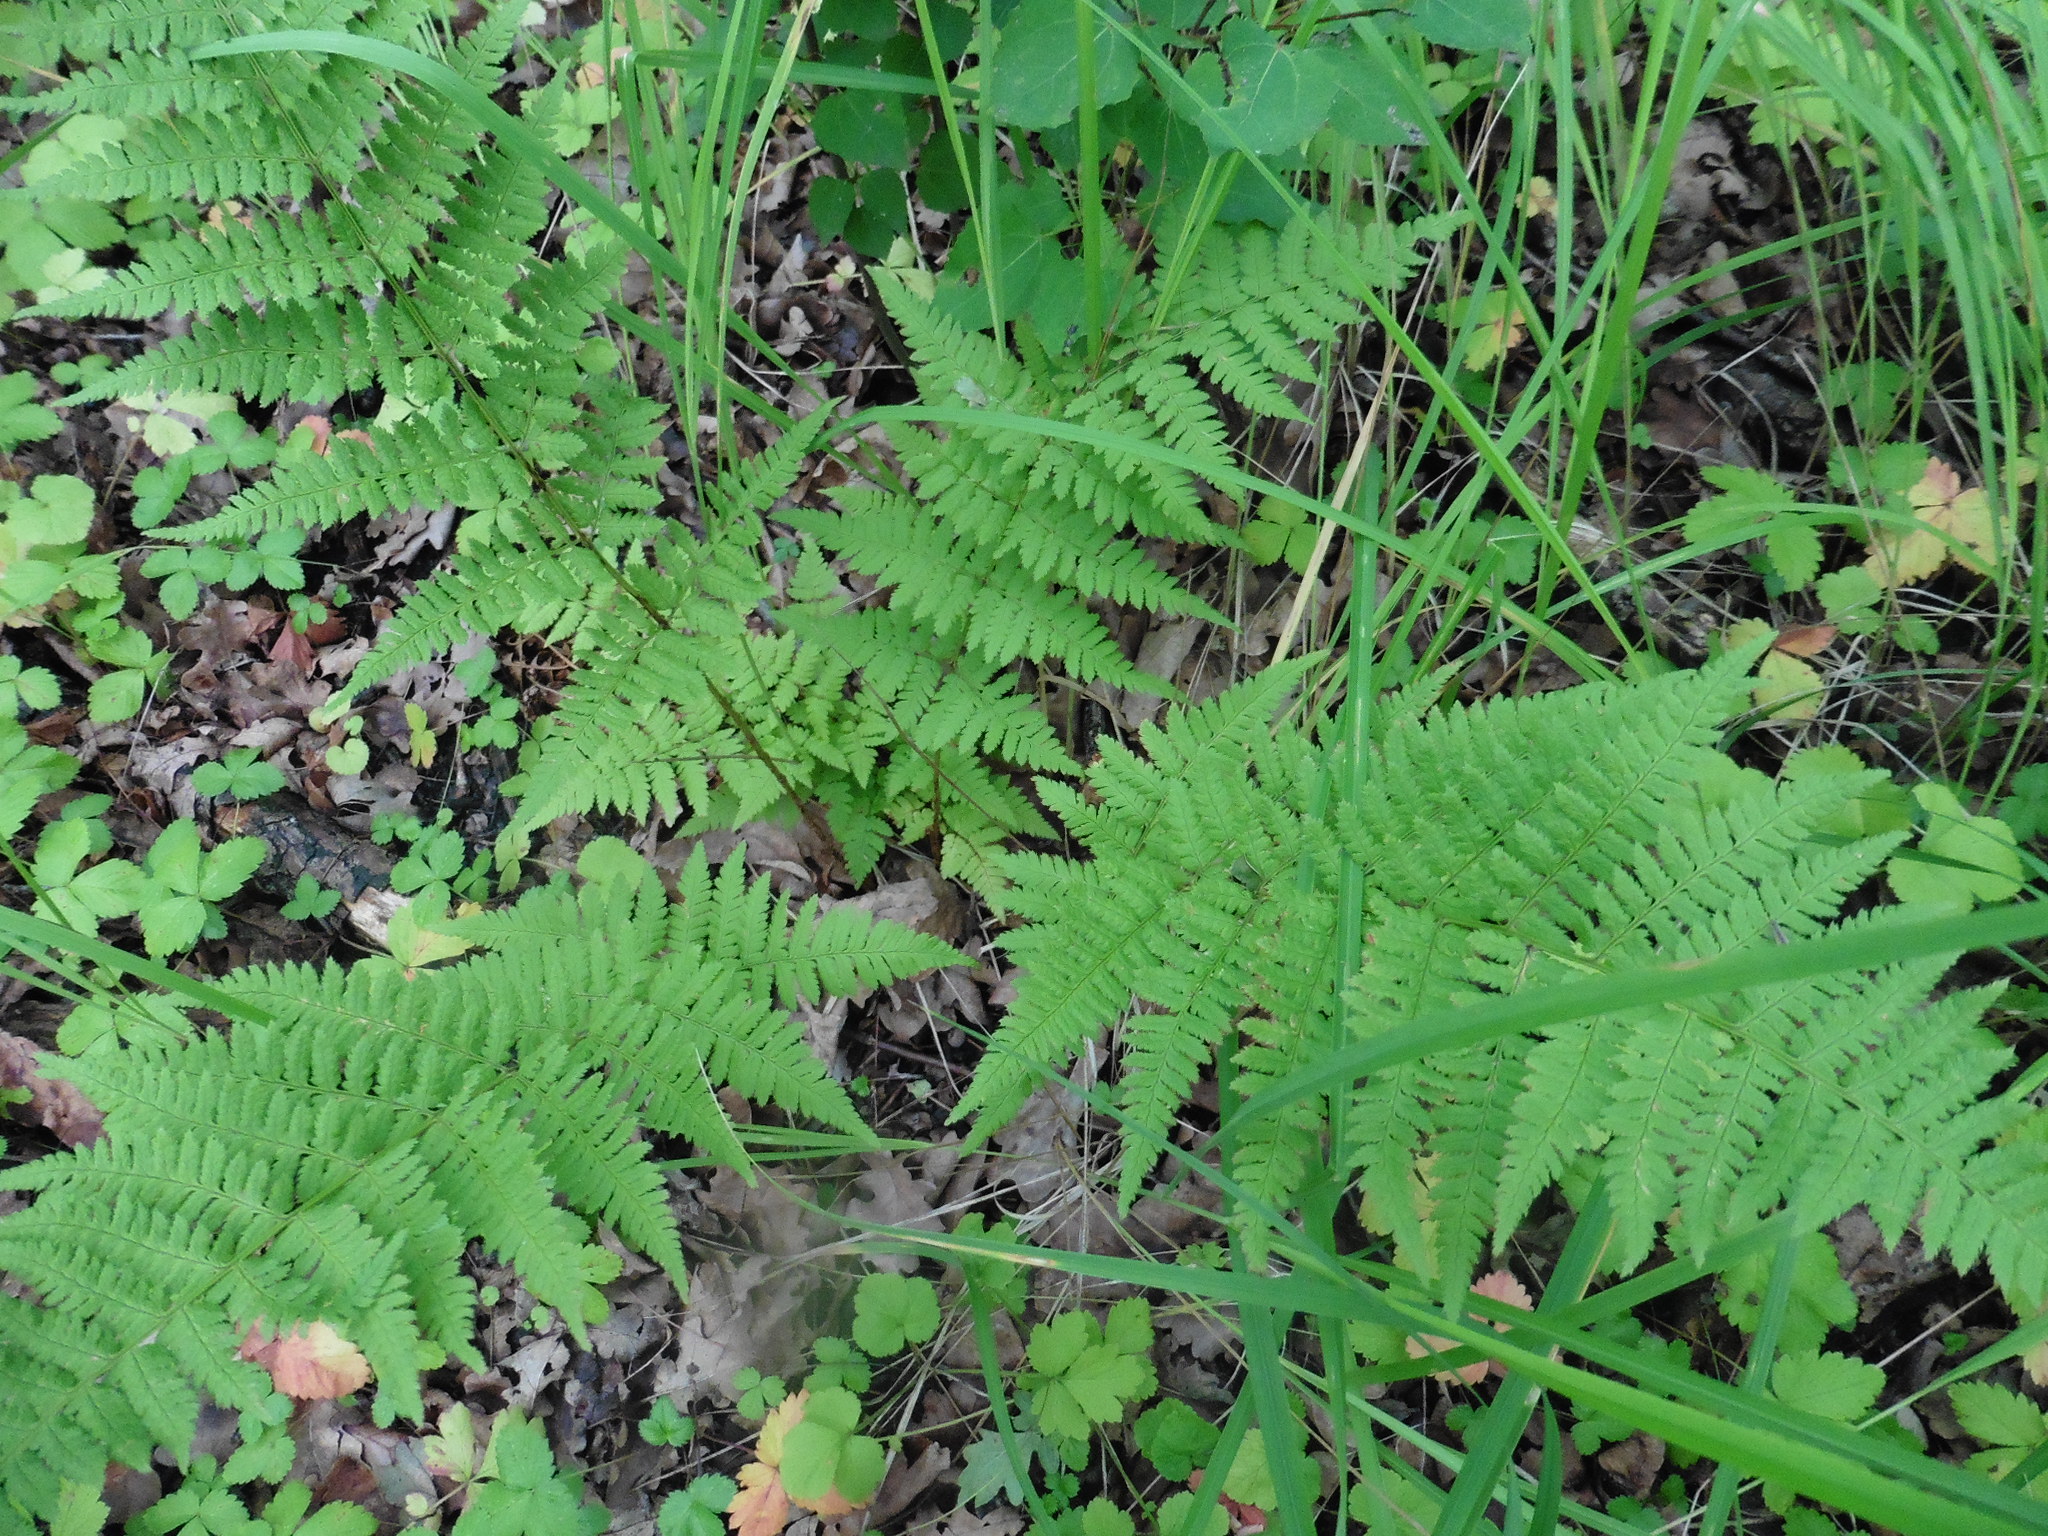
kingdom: Plantae
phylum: Tracheophyta
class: Polypodiopsida
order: Polypodiales
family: Dryopteridaceae
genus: Dryopteris
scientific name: Dryopteris carthusiana
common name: Narrow buckler-fern
